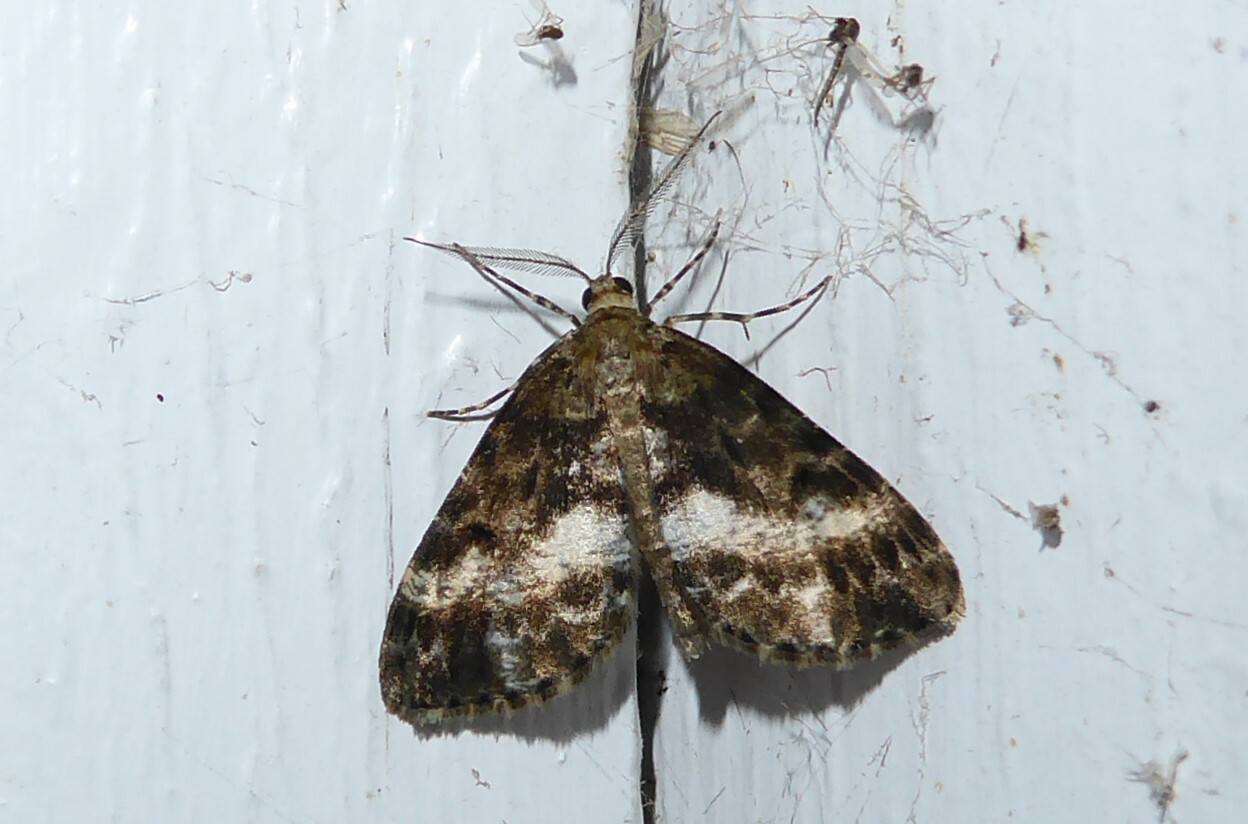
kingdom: Animalia
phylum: Arthropoda
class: Insecta
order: Lepidoptera
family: Geometridae
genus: Pseudocoremia
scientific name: Pseudocoremia lactiflua
